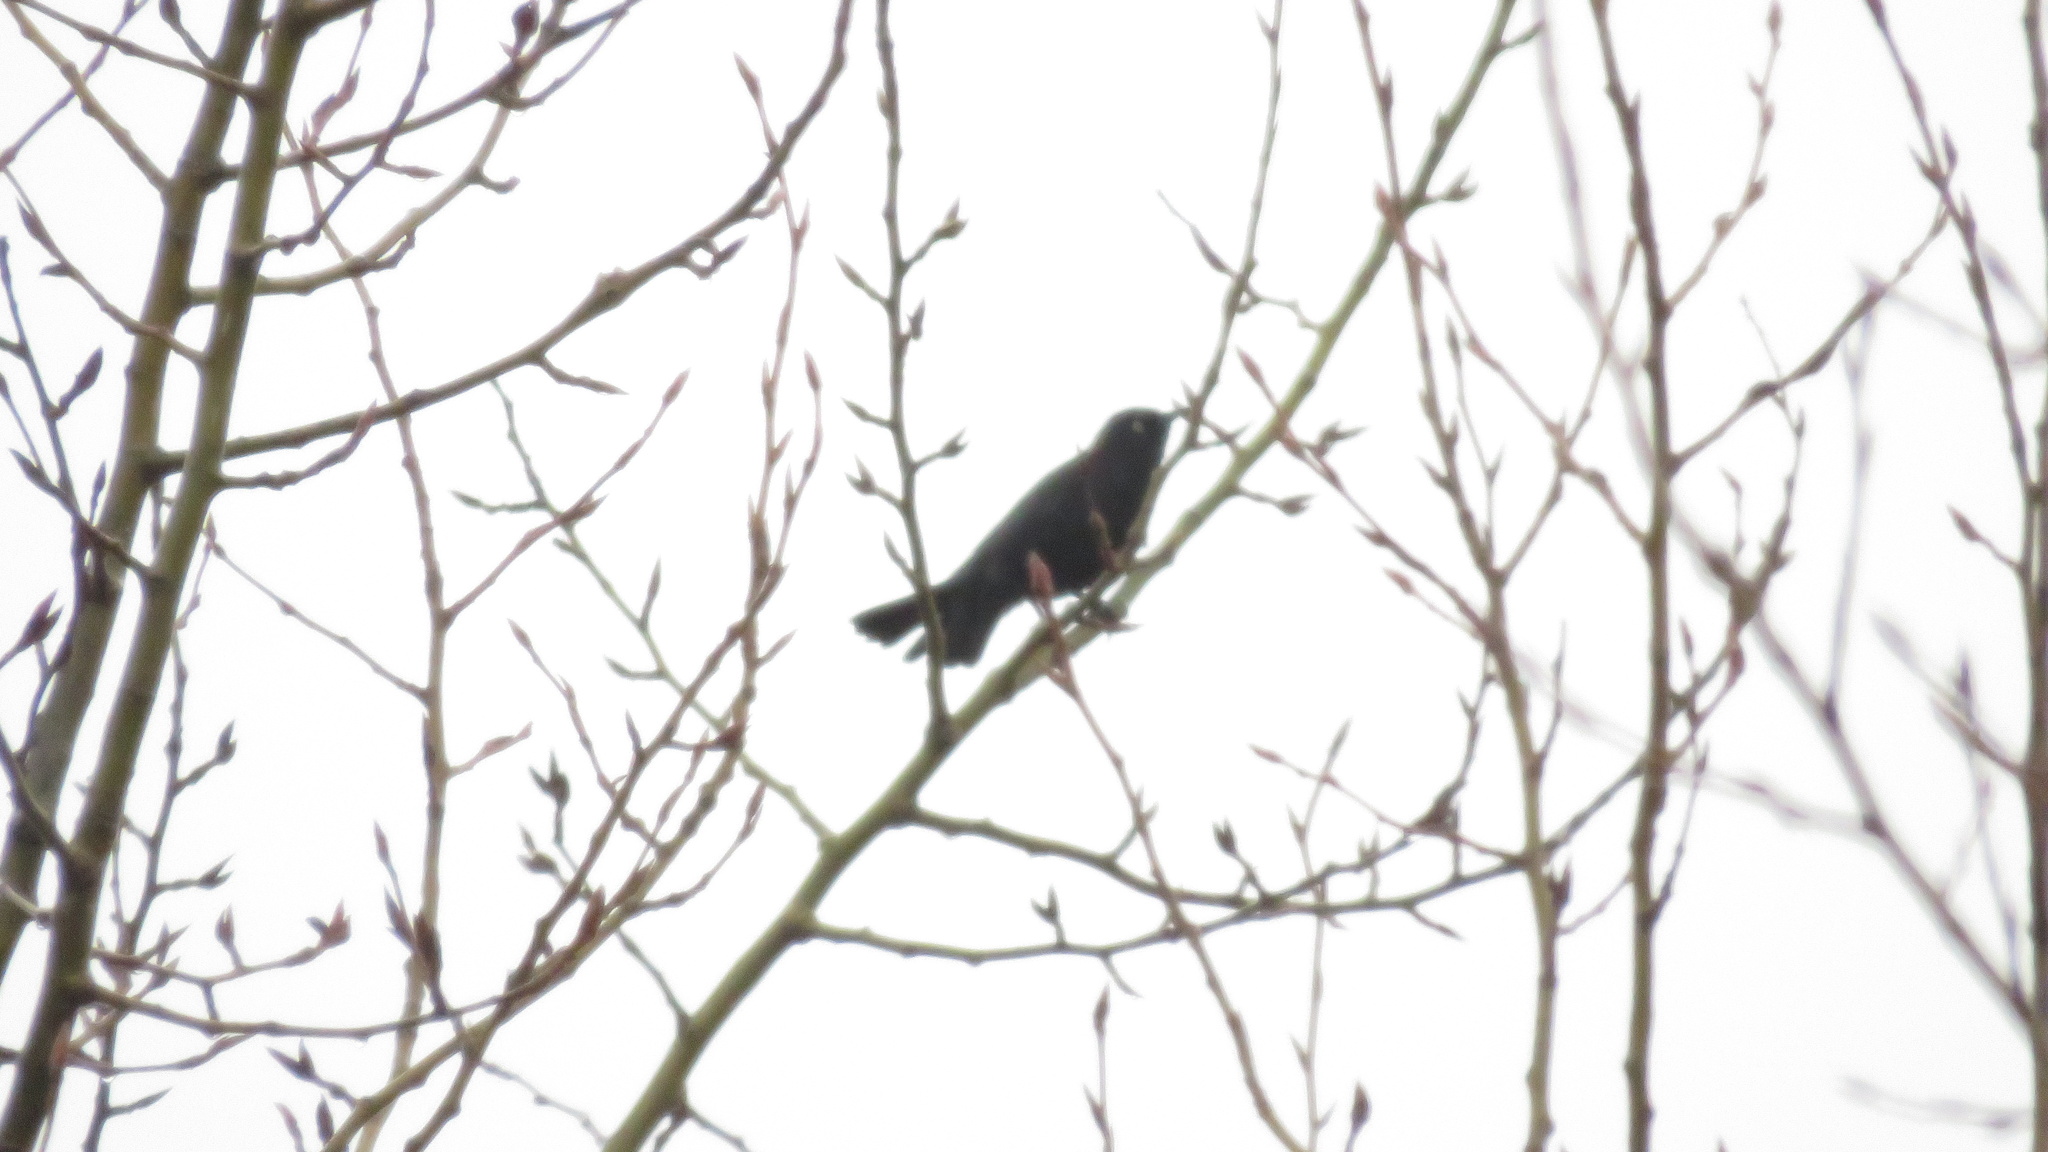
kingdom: Animalia
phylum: Chordata
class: Aves
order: Passeriformes
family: Icteridae
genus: Euphagus
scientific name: Euphagus carolinus
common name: Rusty blackbird
